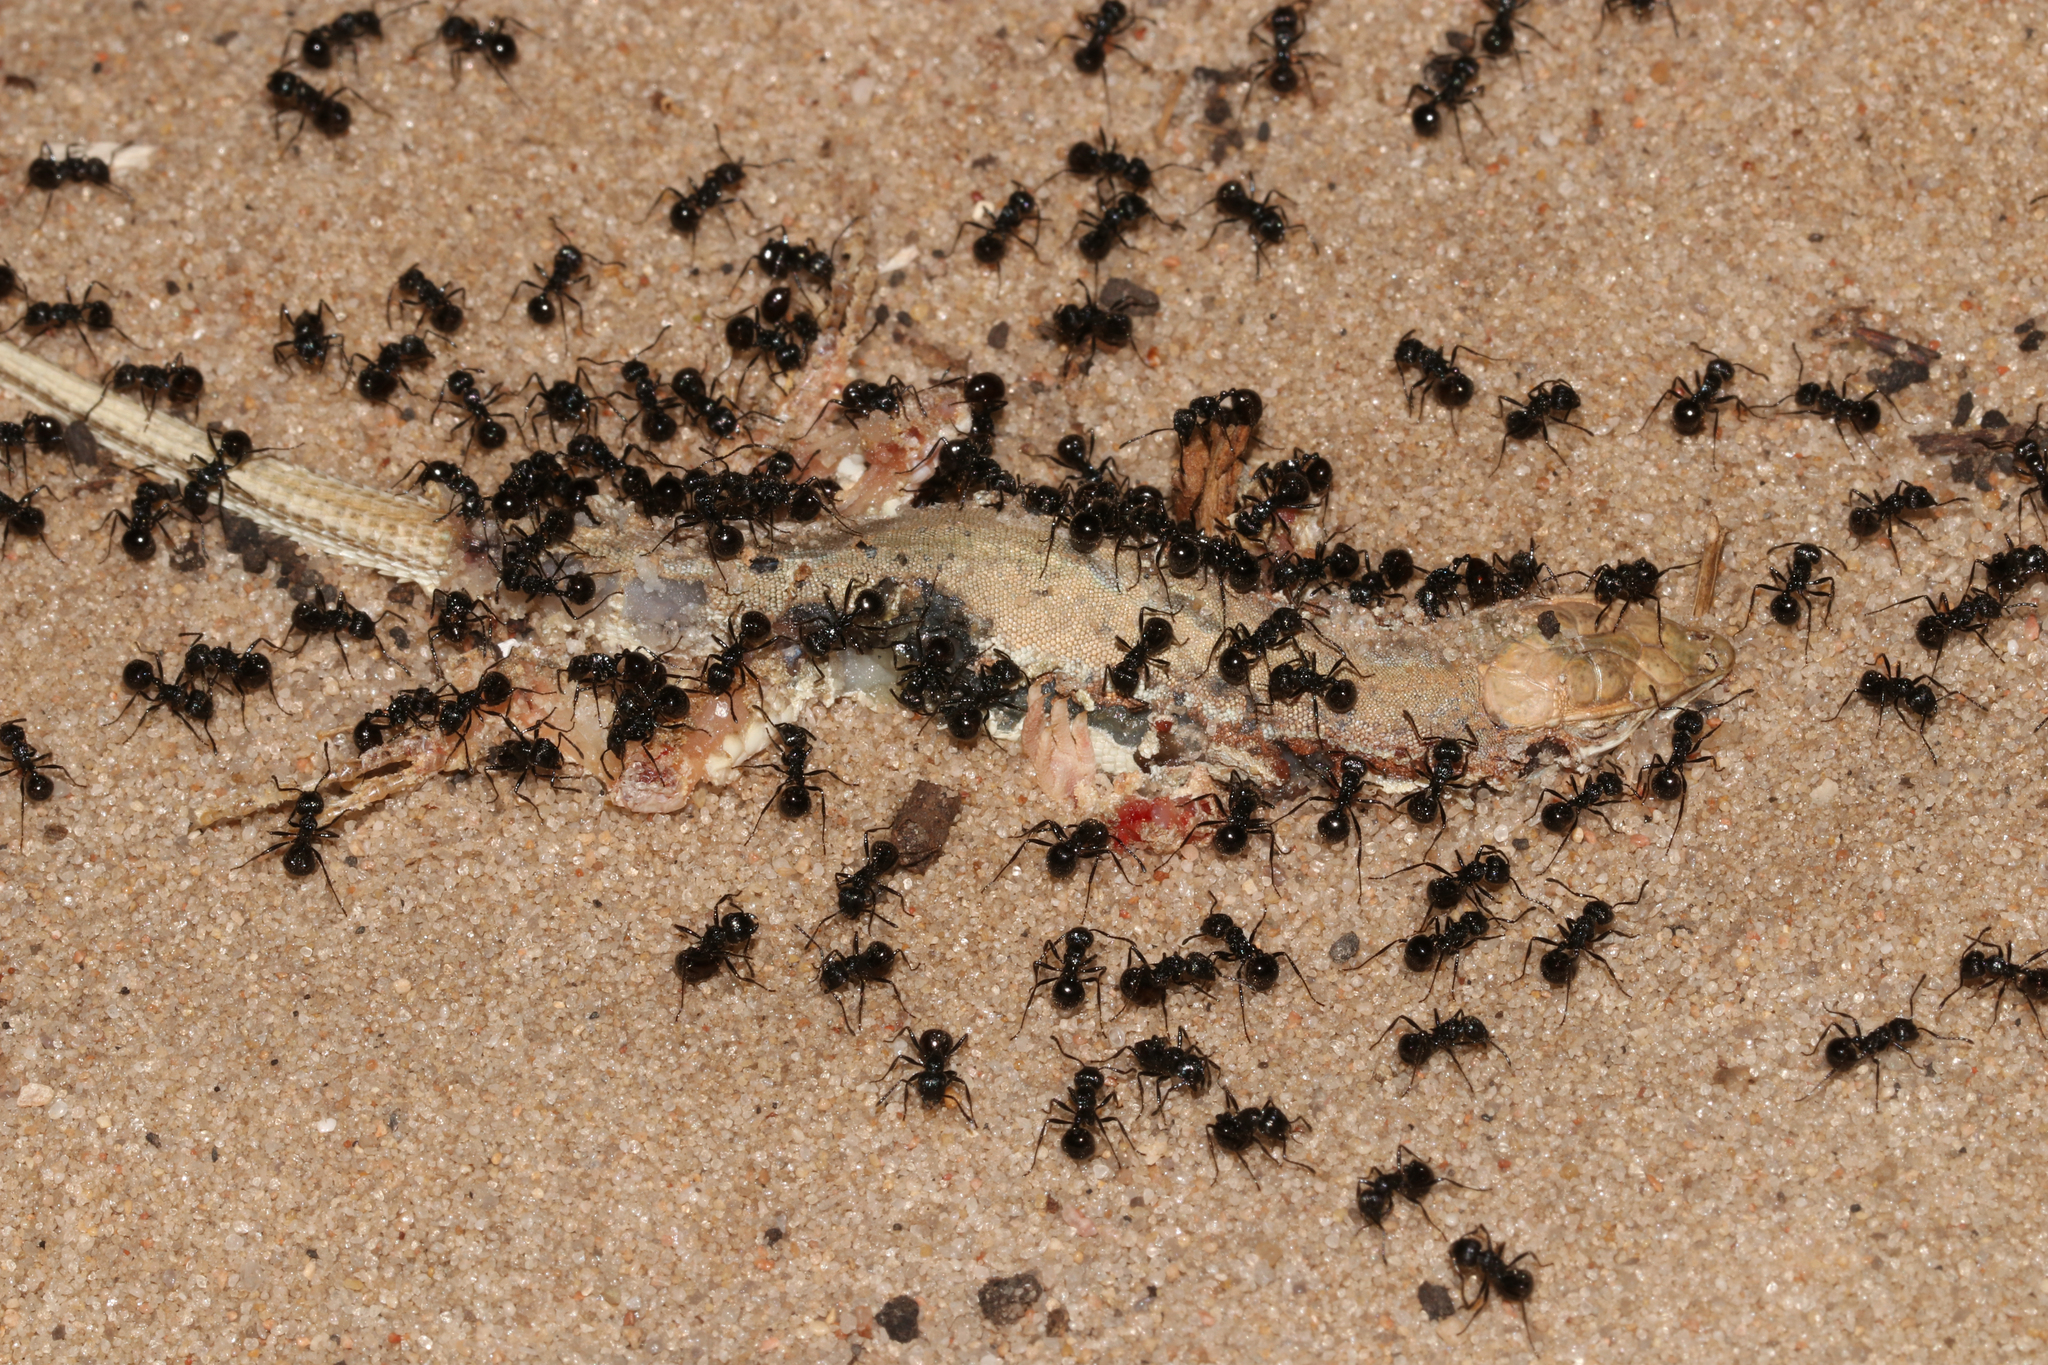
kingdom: Animalia
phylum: Chordata
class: Squamata
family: Lacertidae
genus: Meroles
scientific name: Meroles ctenodactylus
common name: Giant desert lizard
